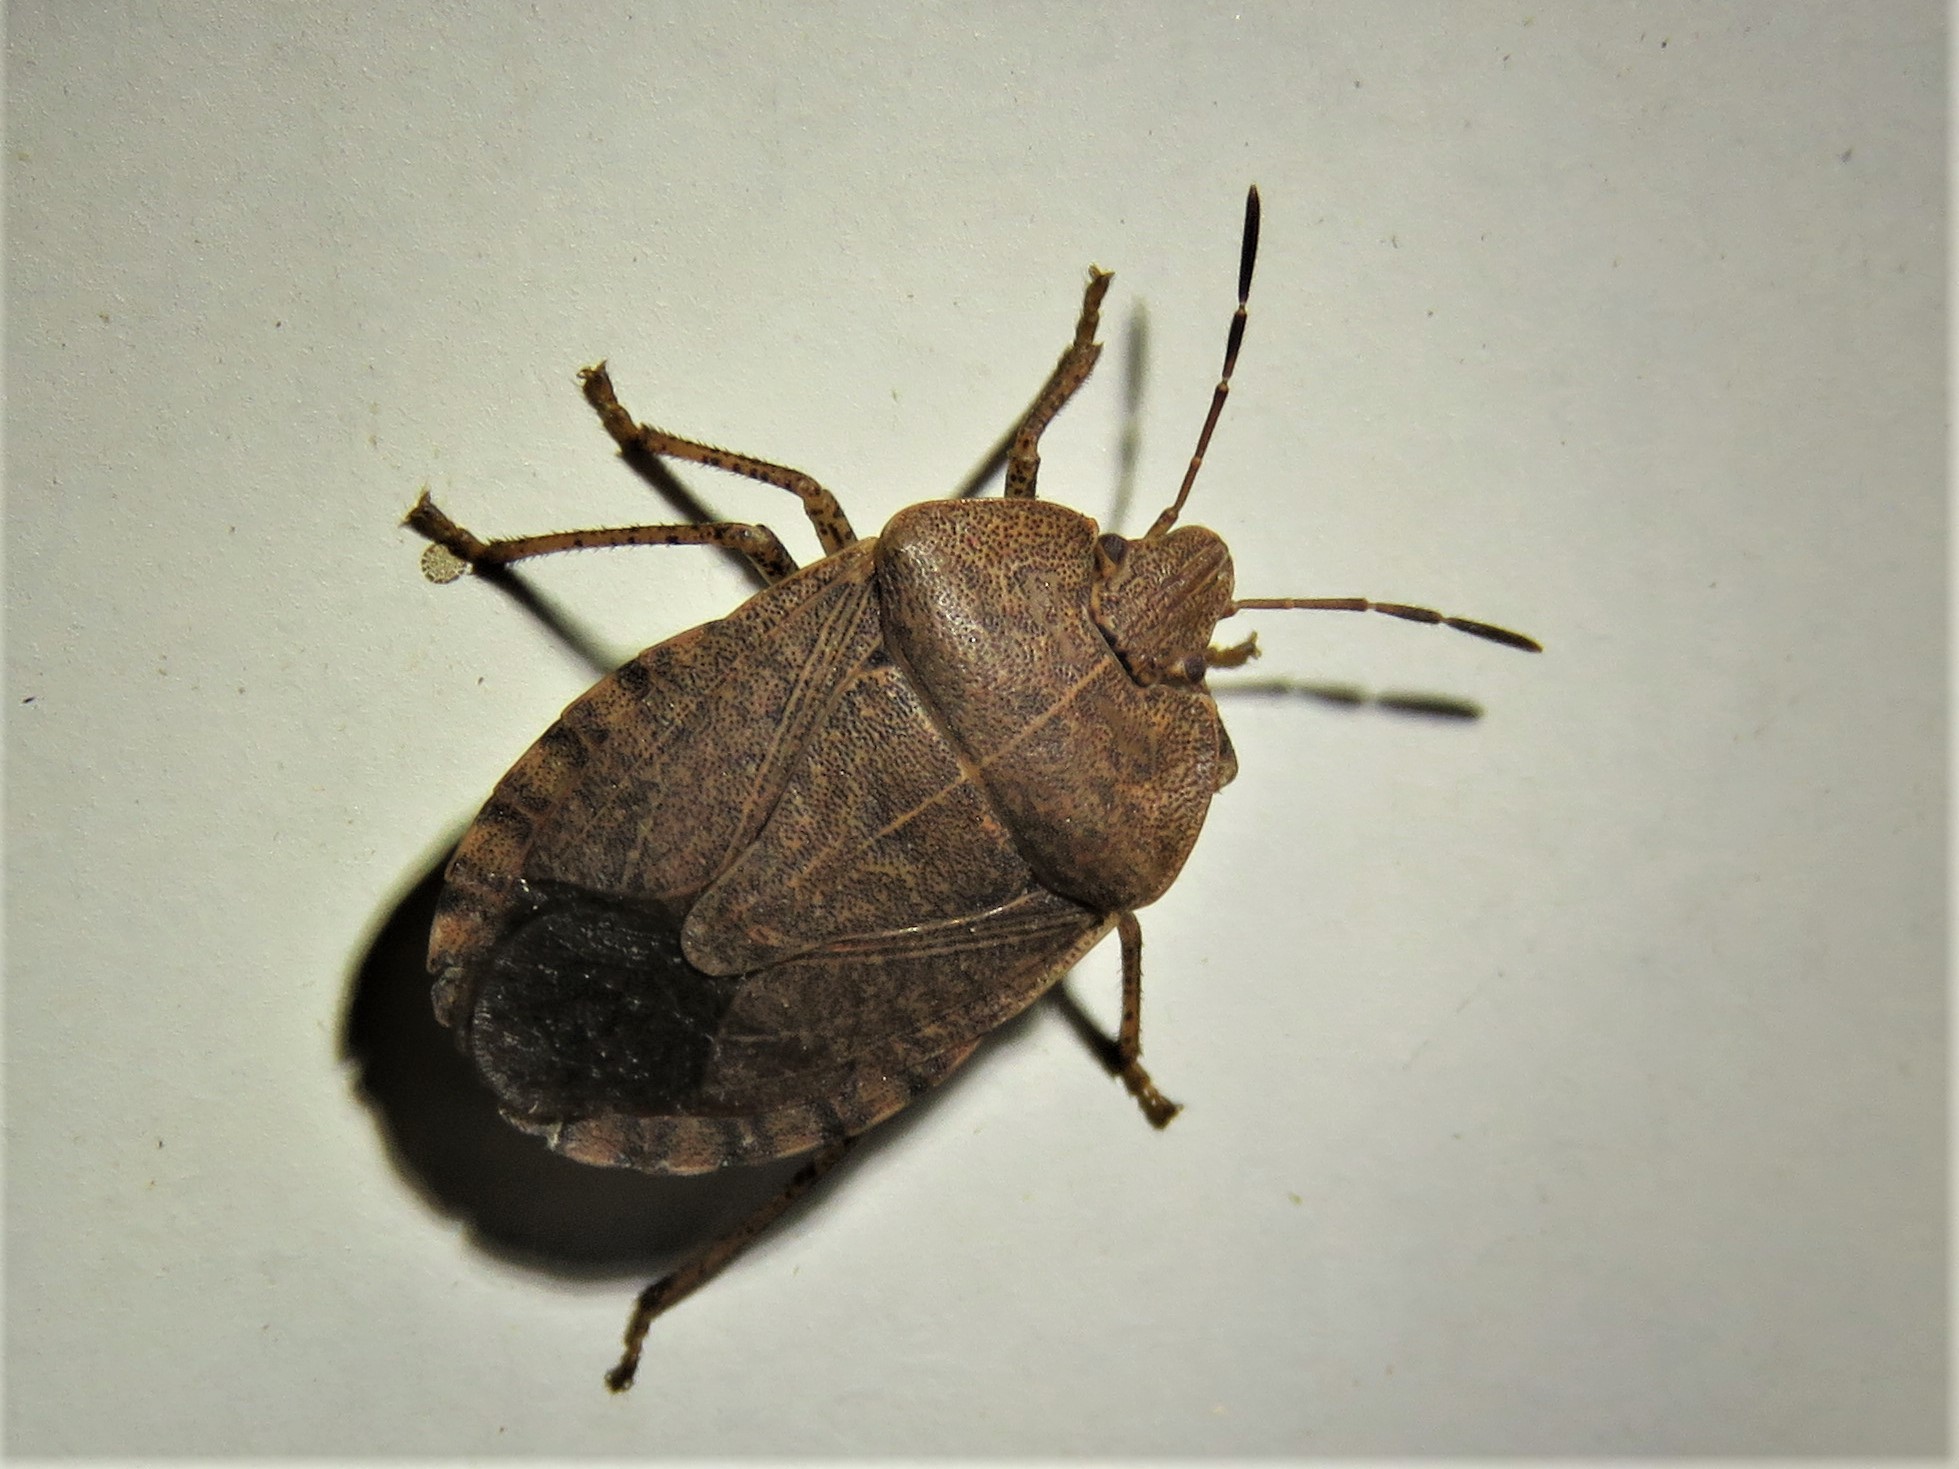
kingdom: Animalia
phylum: Arthropoda
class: Insecta
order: Hemiptera
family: Pentatomidae
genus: Menecles
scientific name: Menecles insertus
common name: Elf shoe stink bug
